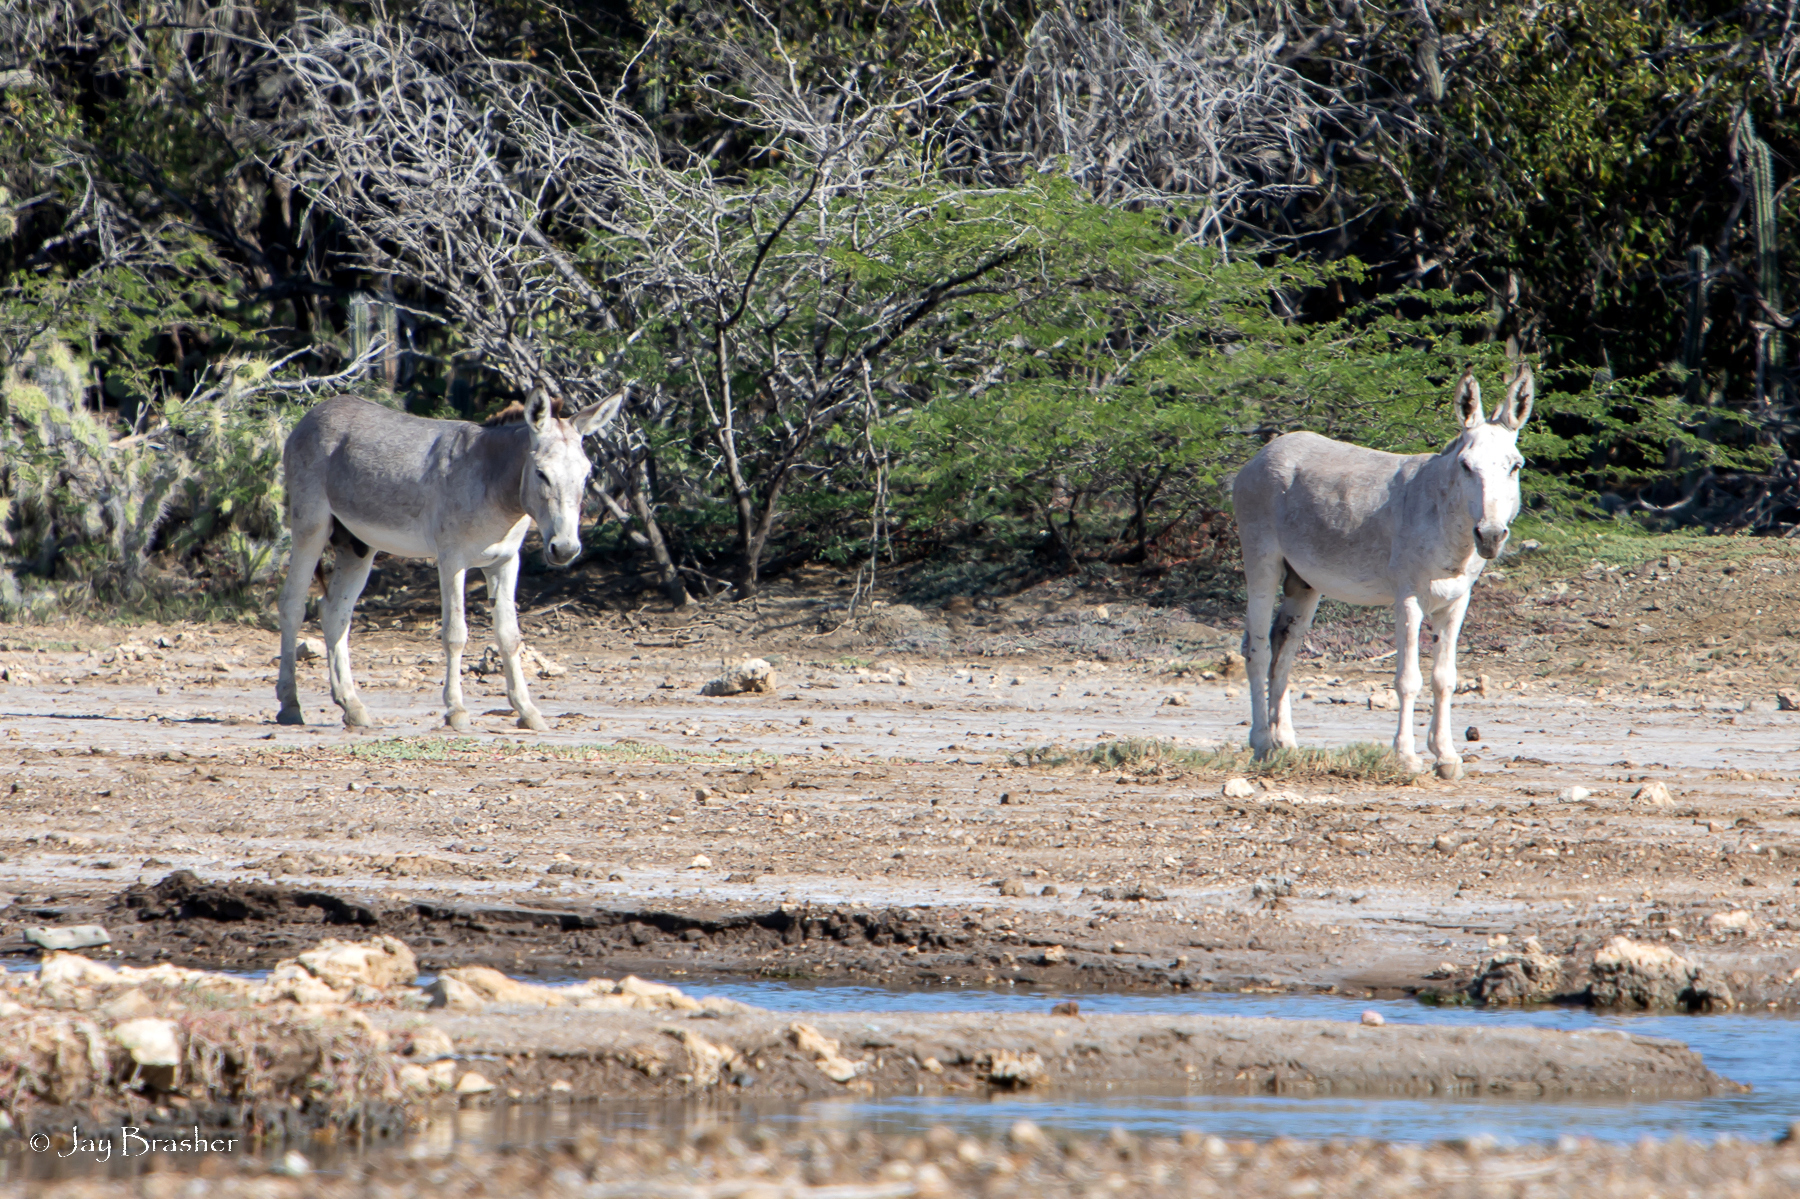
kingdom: Animalia
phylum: Chordata
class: Mammalia
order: Perissodactyla
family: Equidae
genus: Equus
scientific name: Equus asinus
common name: Ass
